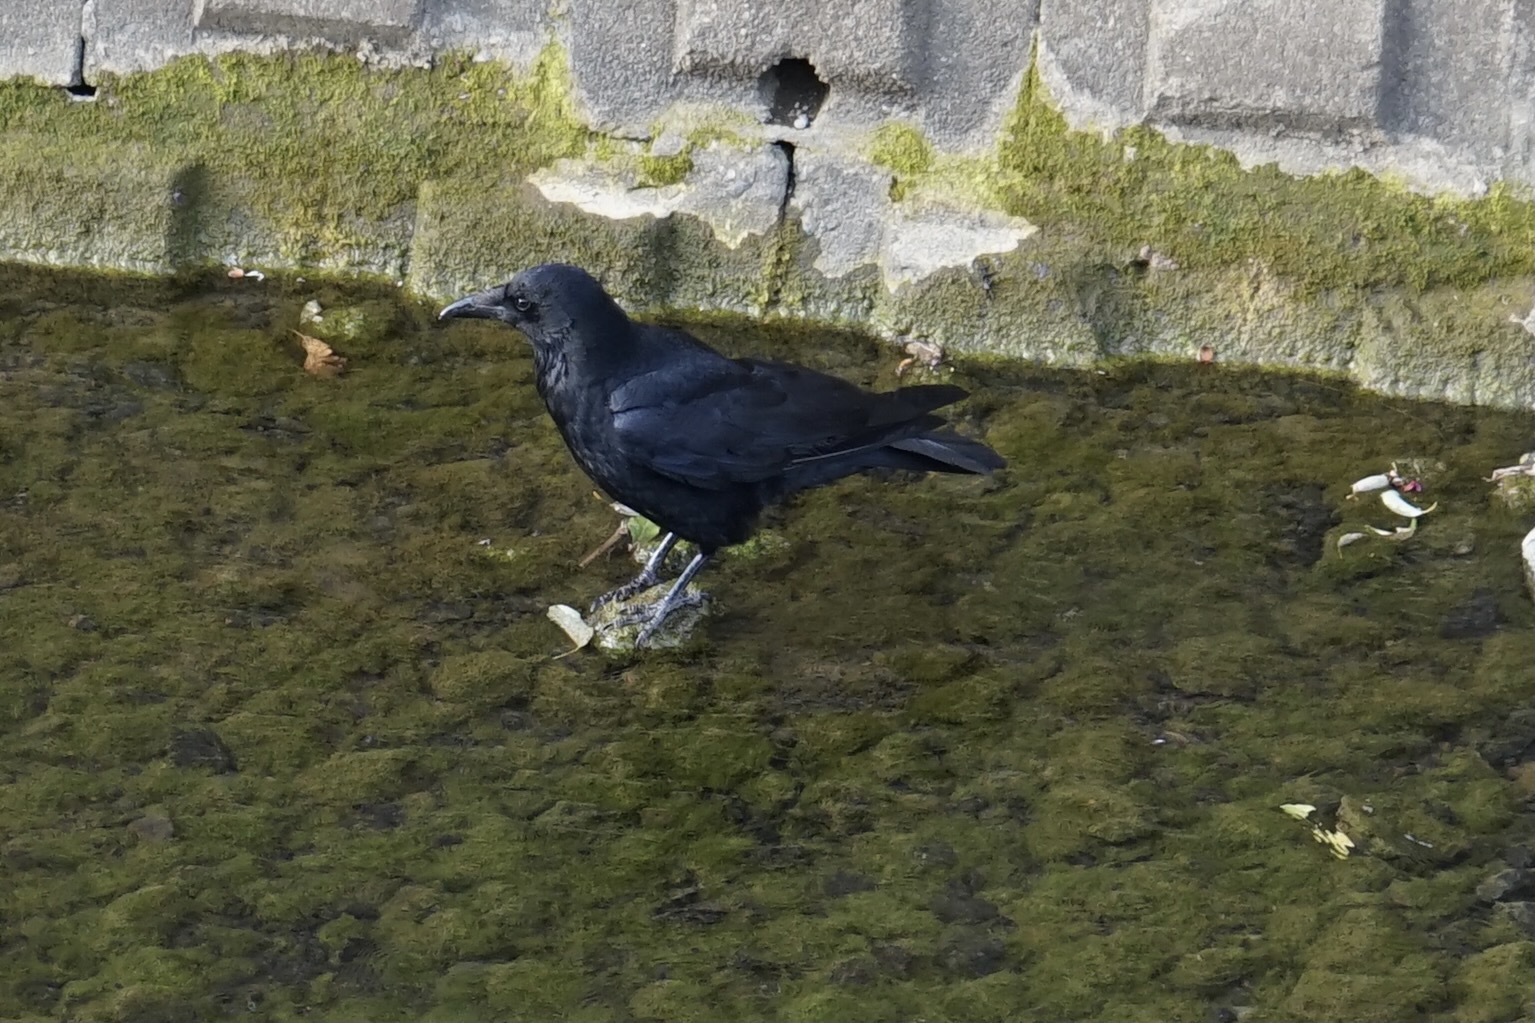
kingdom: Animalia
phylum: Chordata
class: Aves
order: Passeriformes
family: Corvidae
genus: Corvus
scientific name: Corvus corone
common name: Carrion crow
